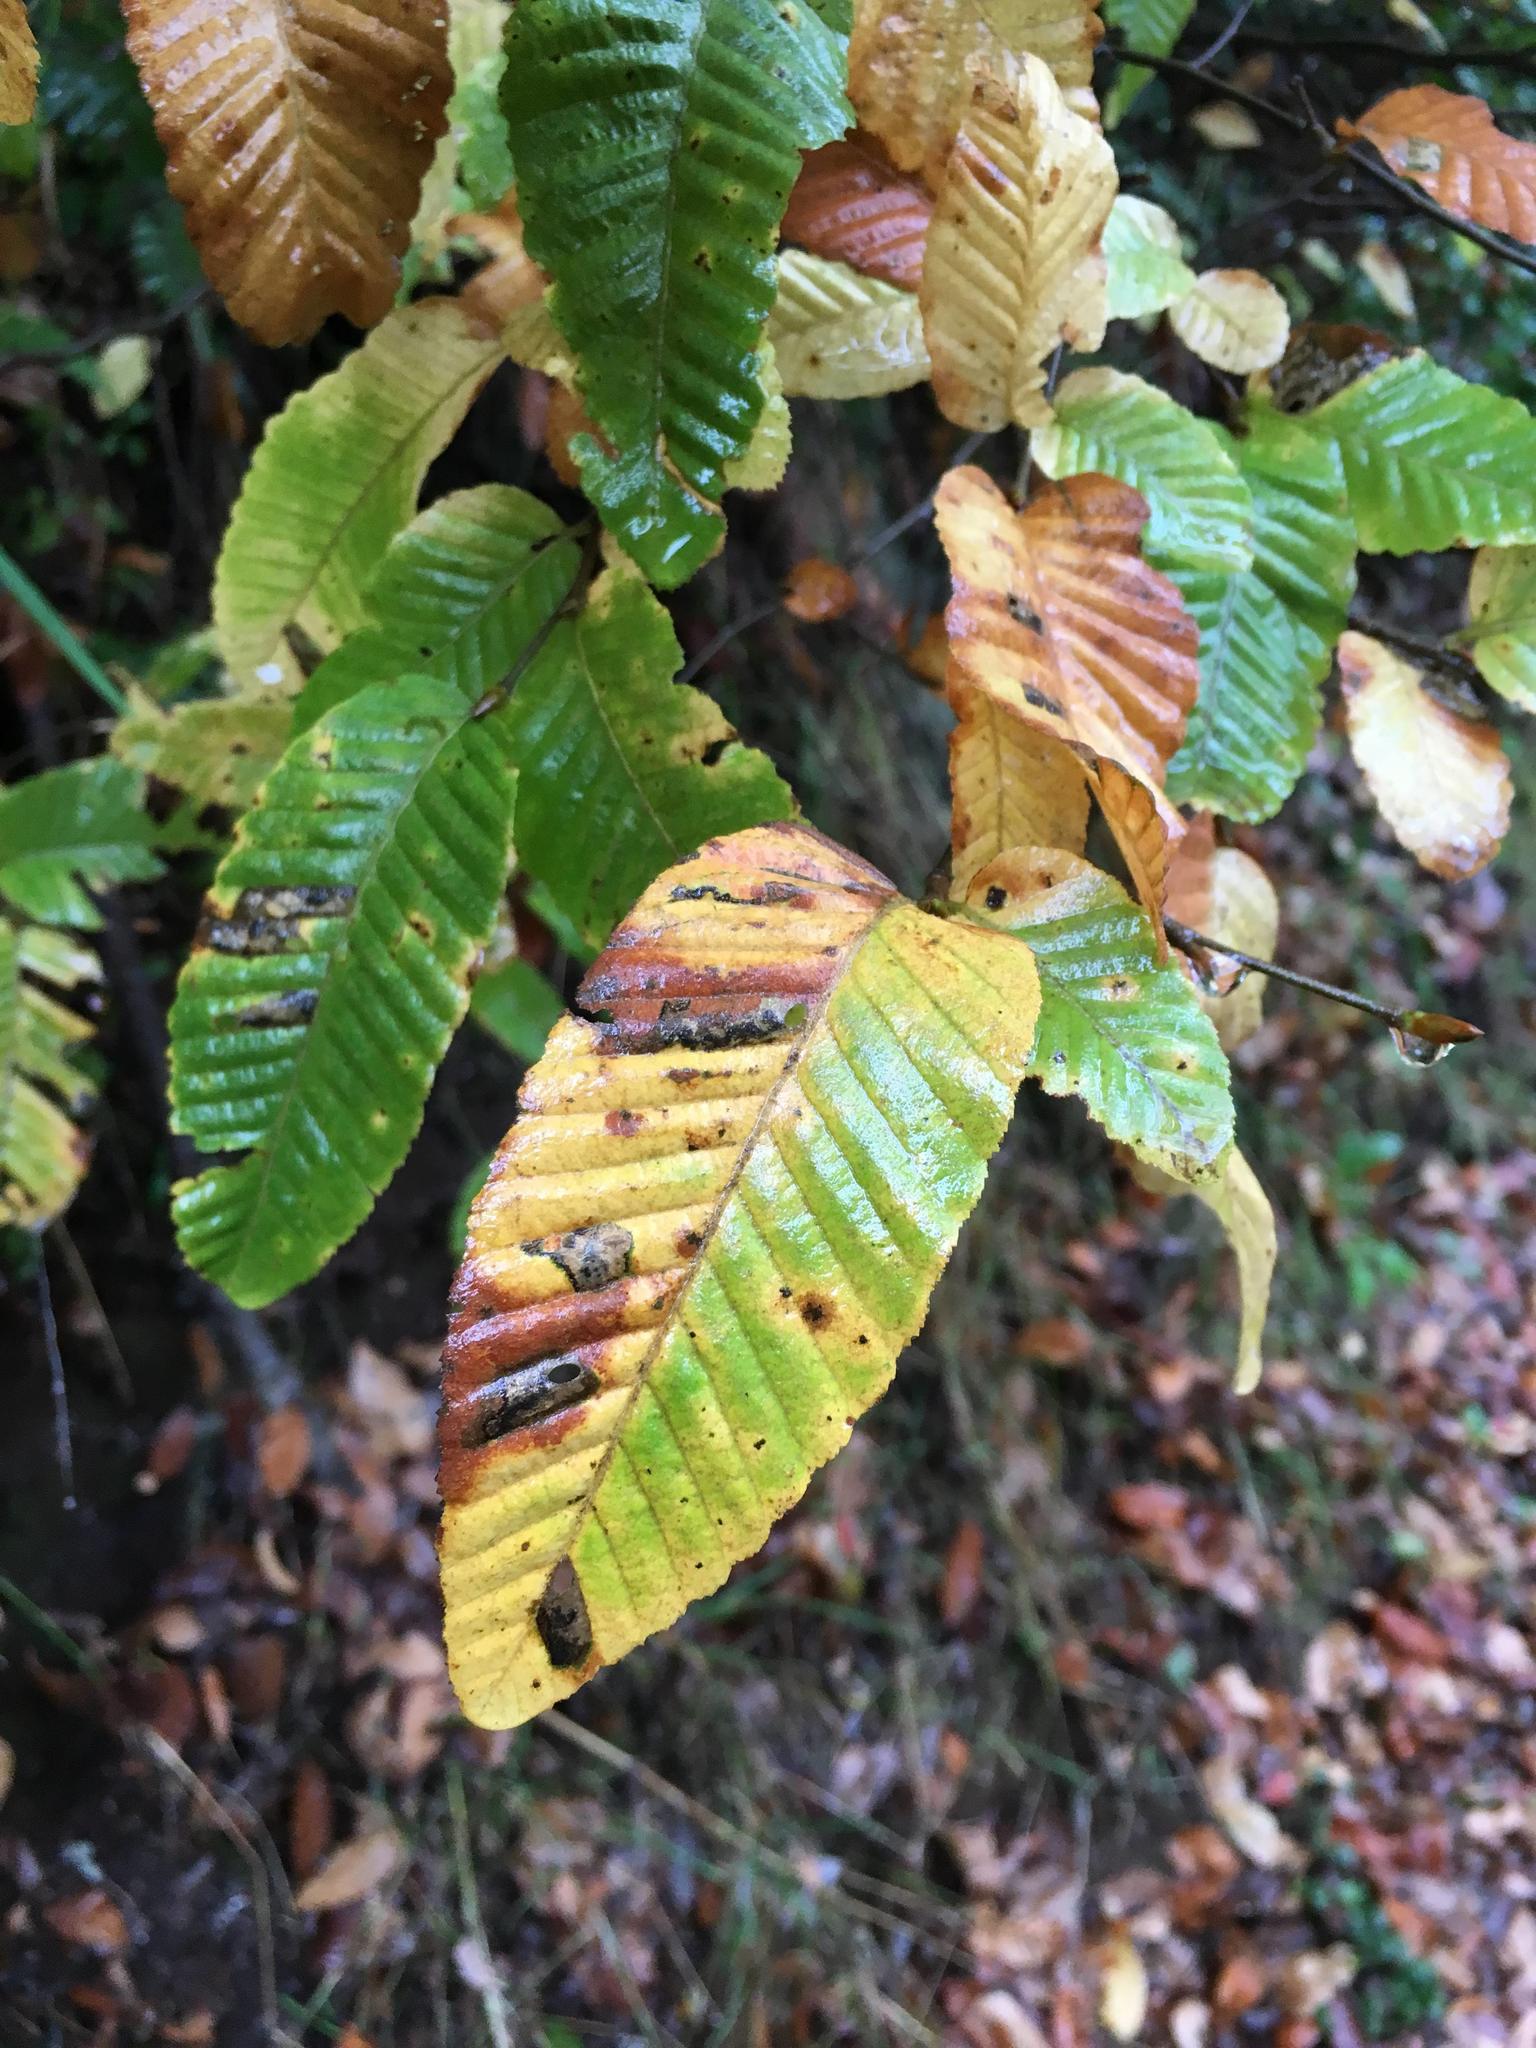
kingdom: Plantae
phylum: Tracheophyta
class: Magnoliopsida
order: Fagales
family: Nothofagaceae
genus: Nothofagus
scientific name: Nothofagus alpina
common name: Rauli
